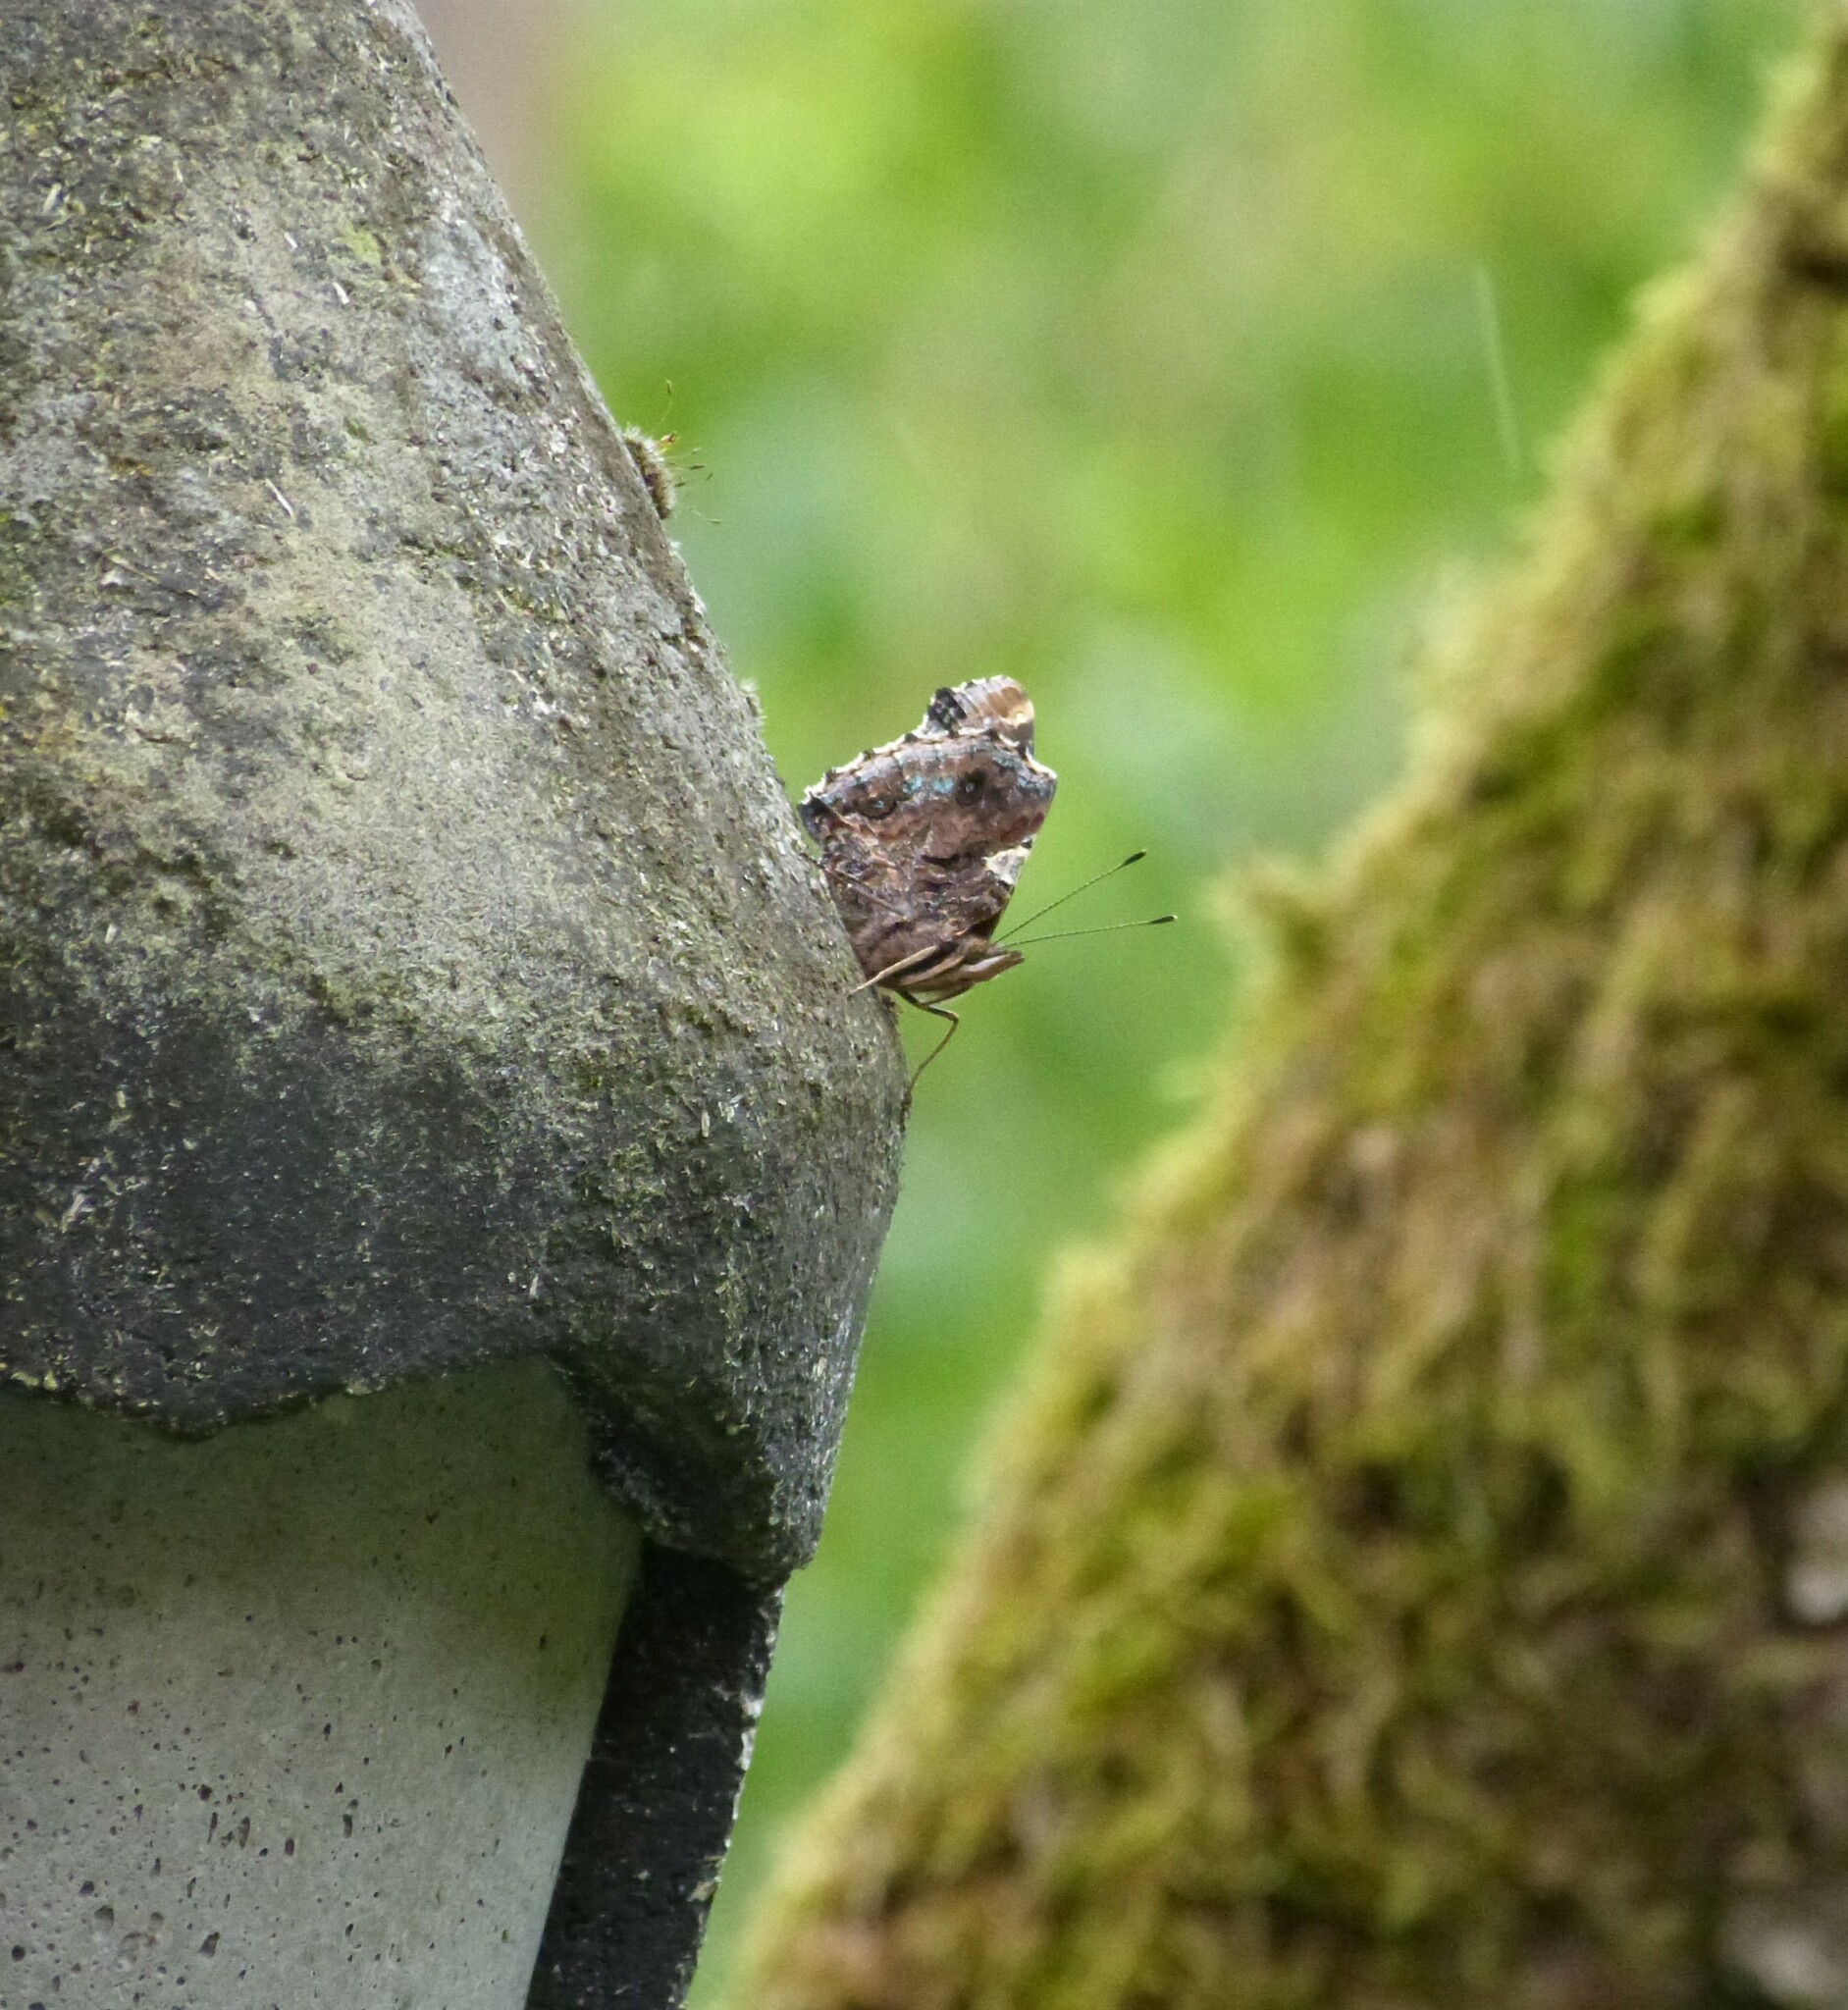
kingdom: Animalia
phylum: Arthropoda
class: Insecta
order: Lepidoptera
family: Nymphalidae
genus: Vanessa
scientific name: Vanessa atalanta
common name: Red admiral
